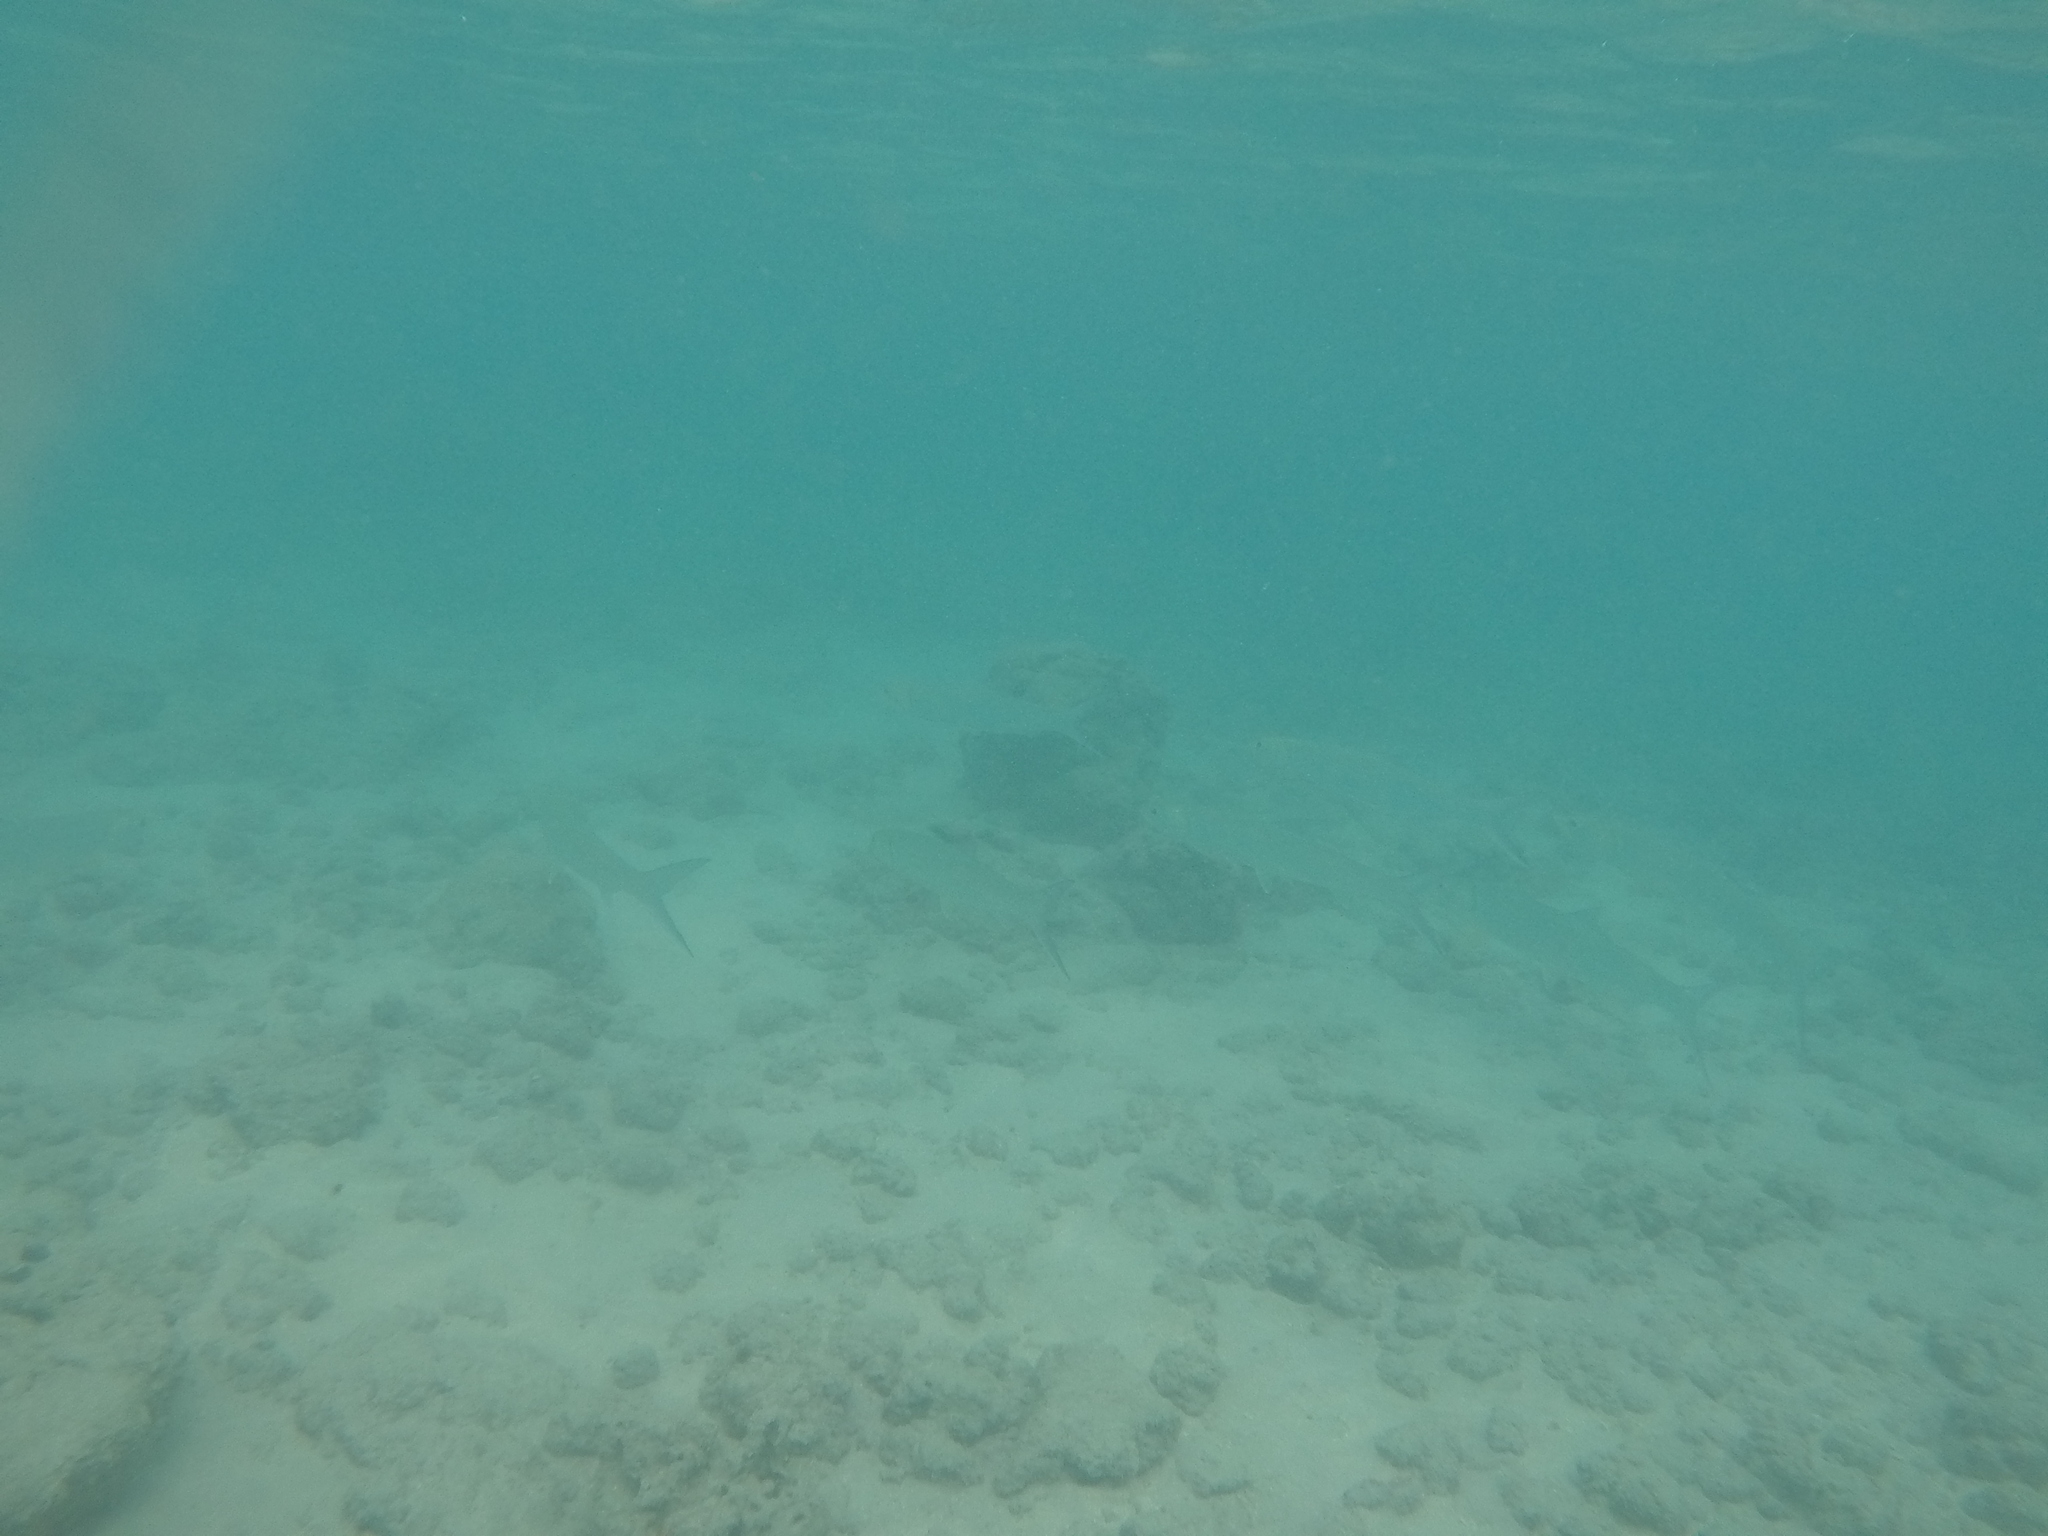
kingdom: Animalia
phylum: Chordata
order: Elopiformes
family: Elopidae
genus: Elops
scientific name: Elops hawaiensis
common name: Hawaiian ladyfish
